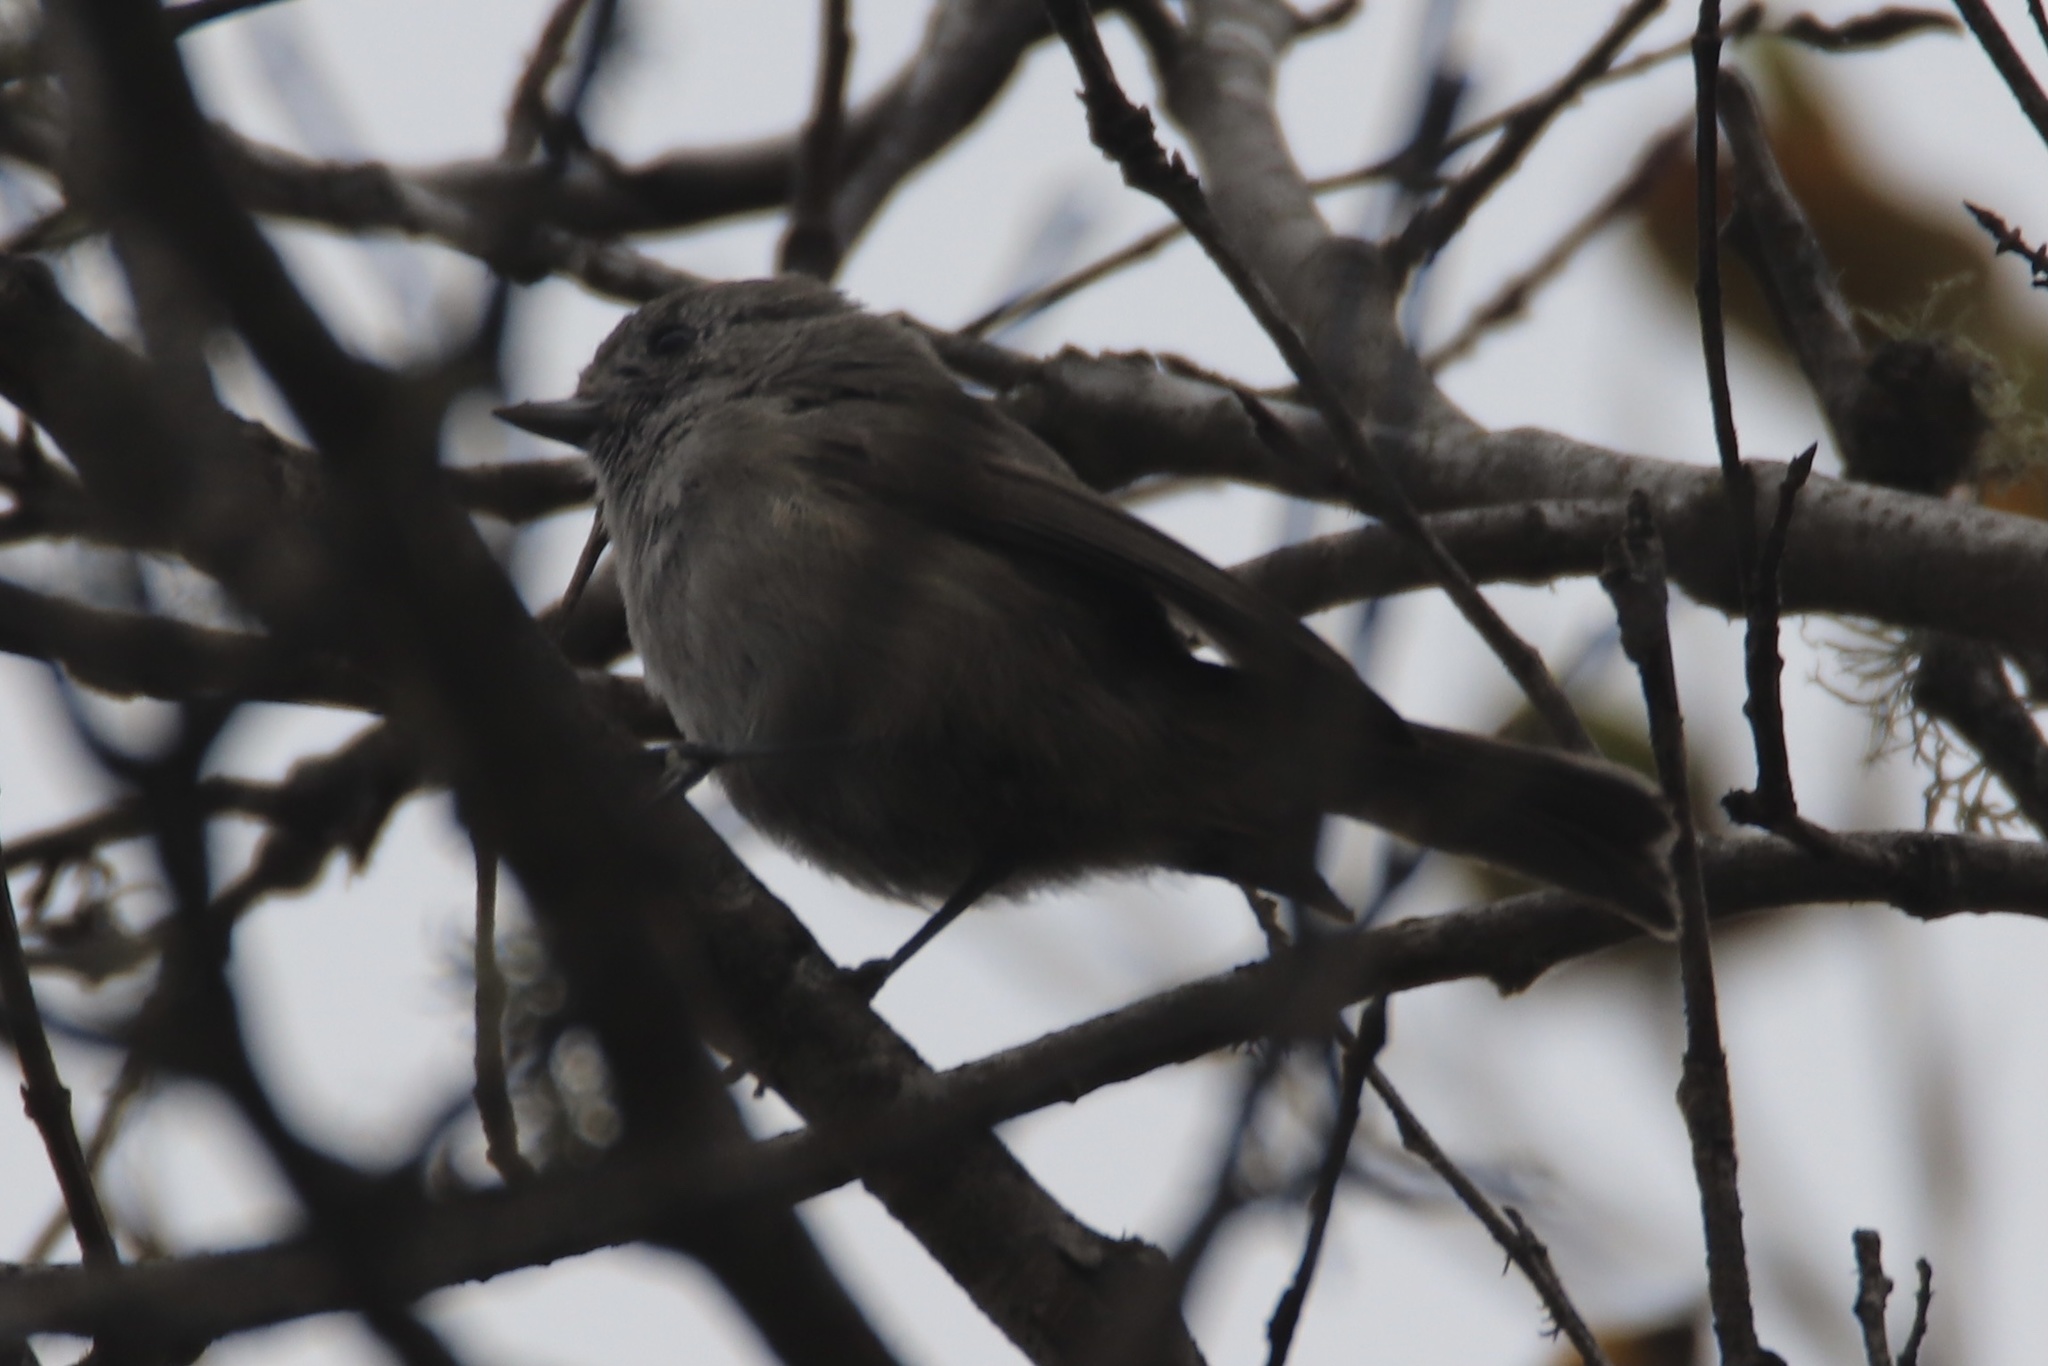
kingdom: Animalia
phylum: Chordata
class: Aves
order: Passeriformes
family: Paridae
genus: Baeolophus
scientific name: Baeolophus inornatus
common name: Oak titmouse
